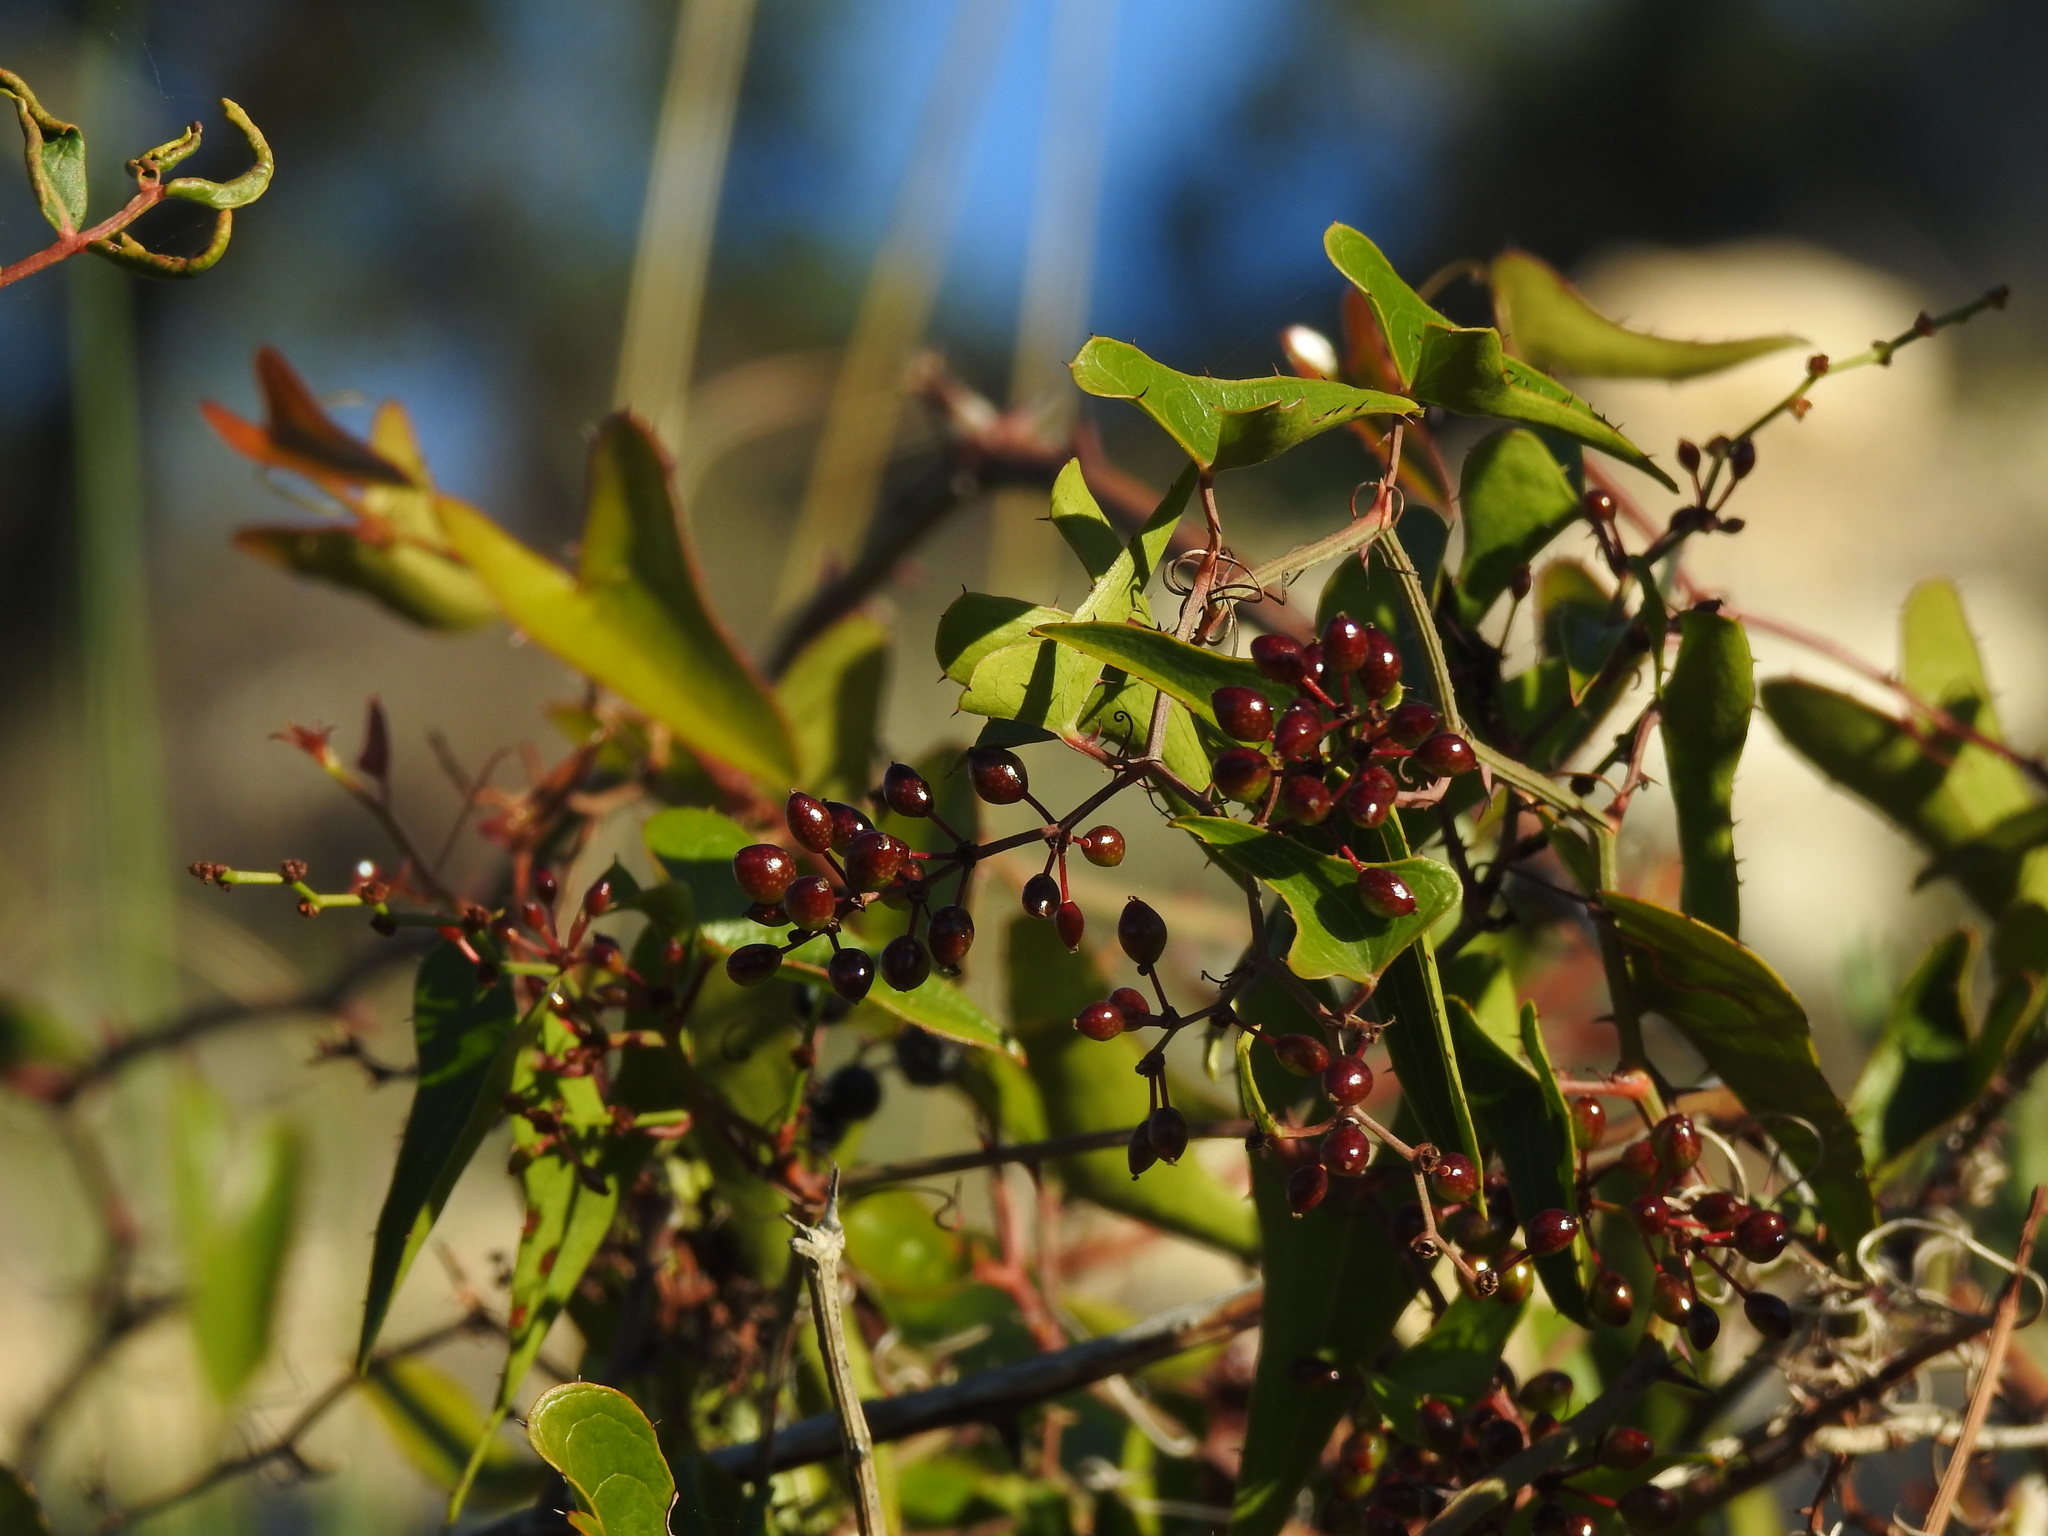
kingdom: Plantae
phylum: Tracheophyta
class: Liliopsida
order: Liliales
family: Smilacaceae
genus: Smilax
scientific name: Smilax aspera
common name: Common smilax
